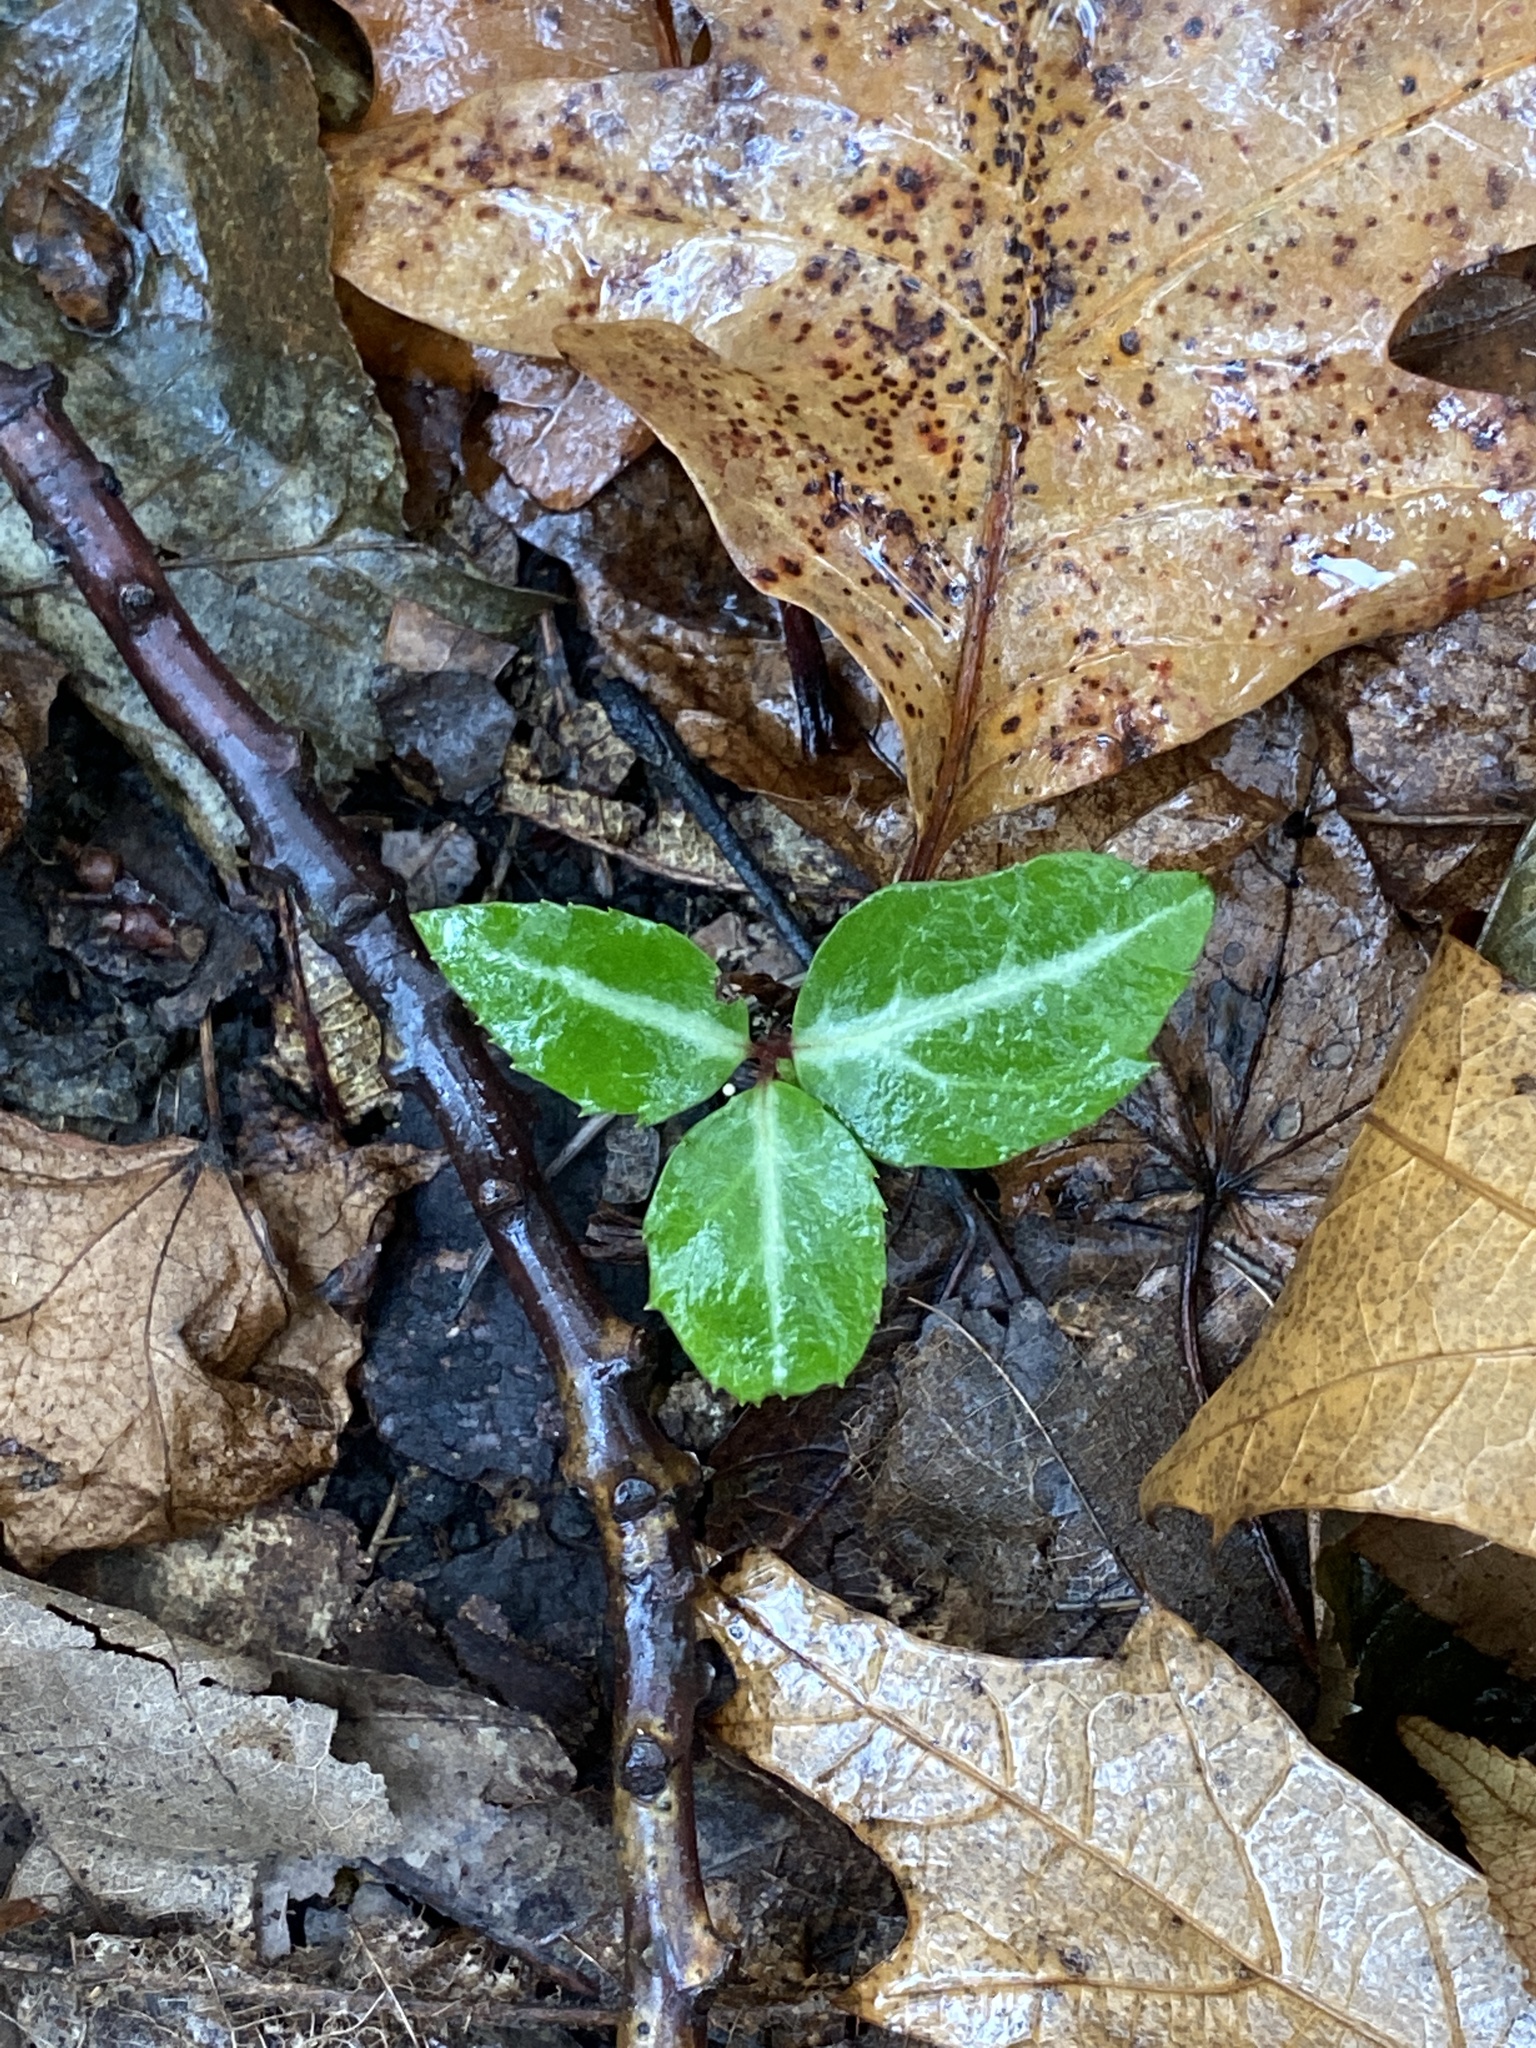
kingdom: Plantae
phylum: Tracheophyta
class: Magnoliopsida
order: Ericales
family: Ericaceae
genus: Chimaphila
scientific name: Chimaphila maculata
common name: Spotted pipsissewa
